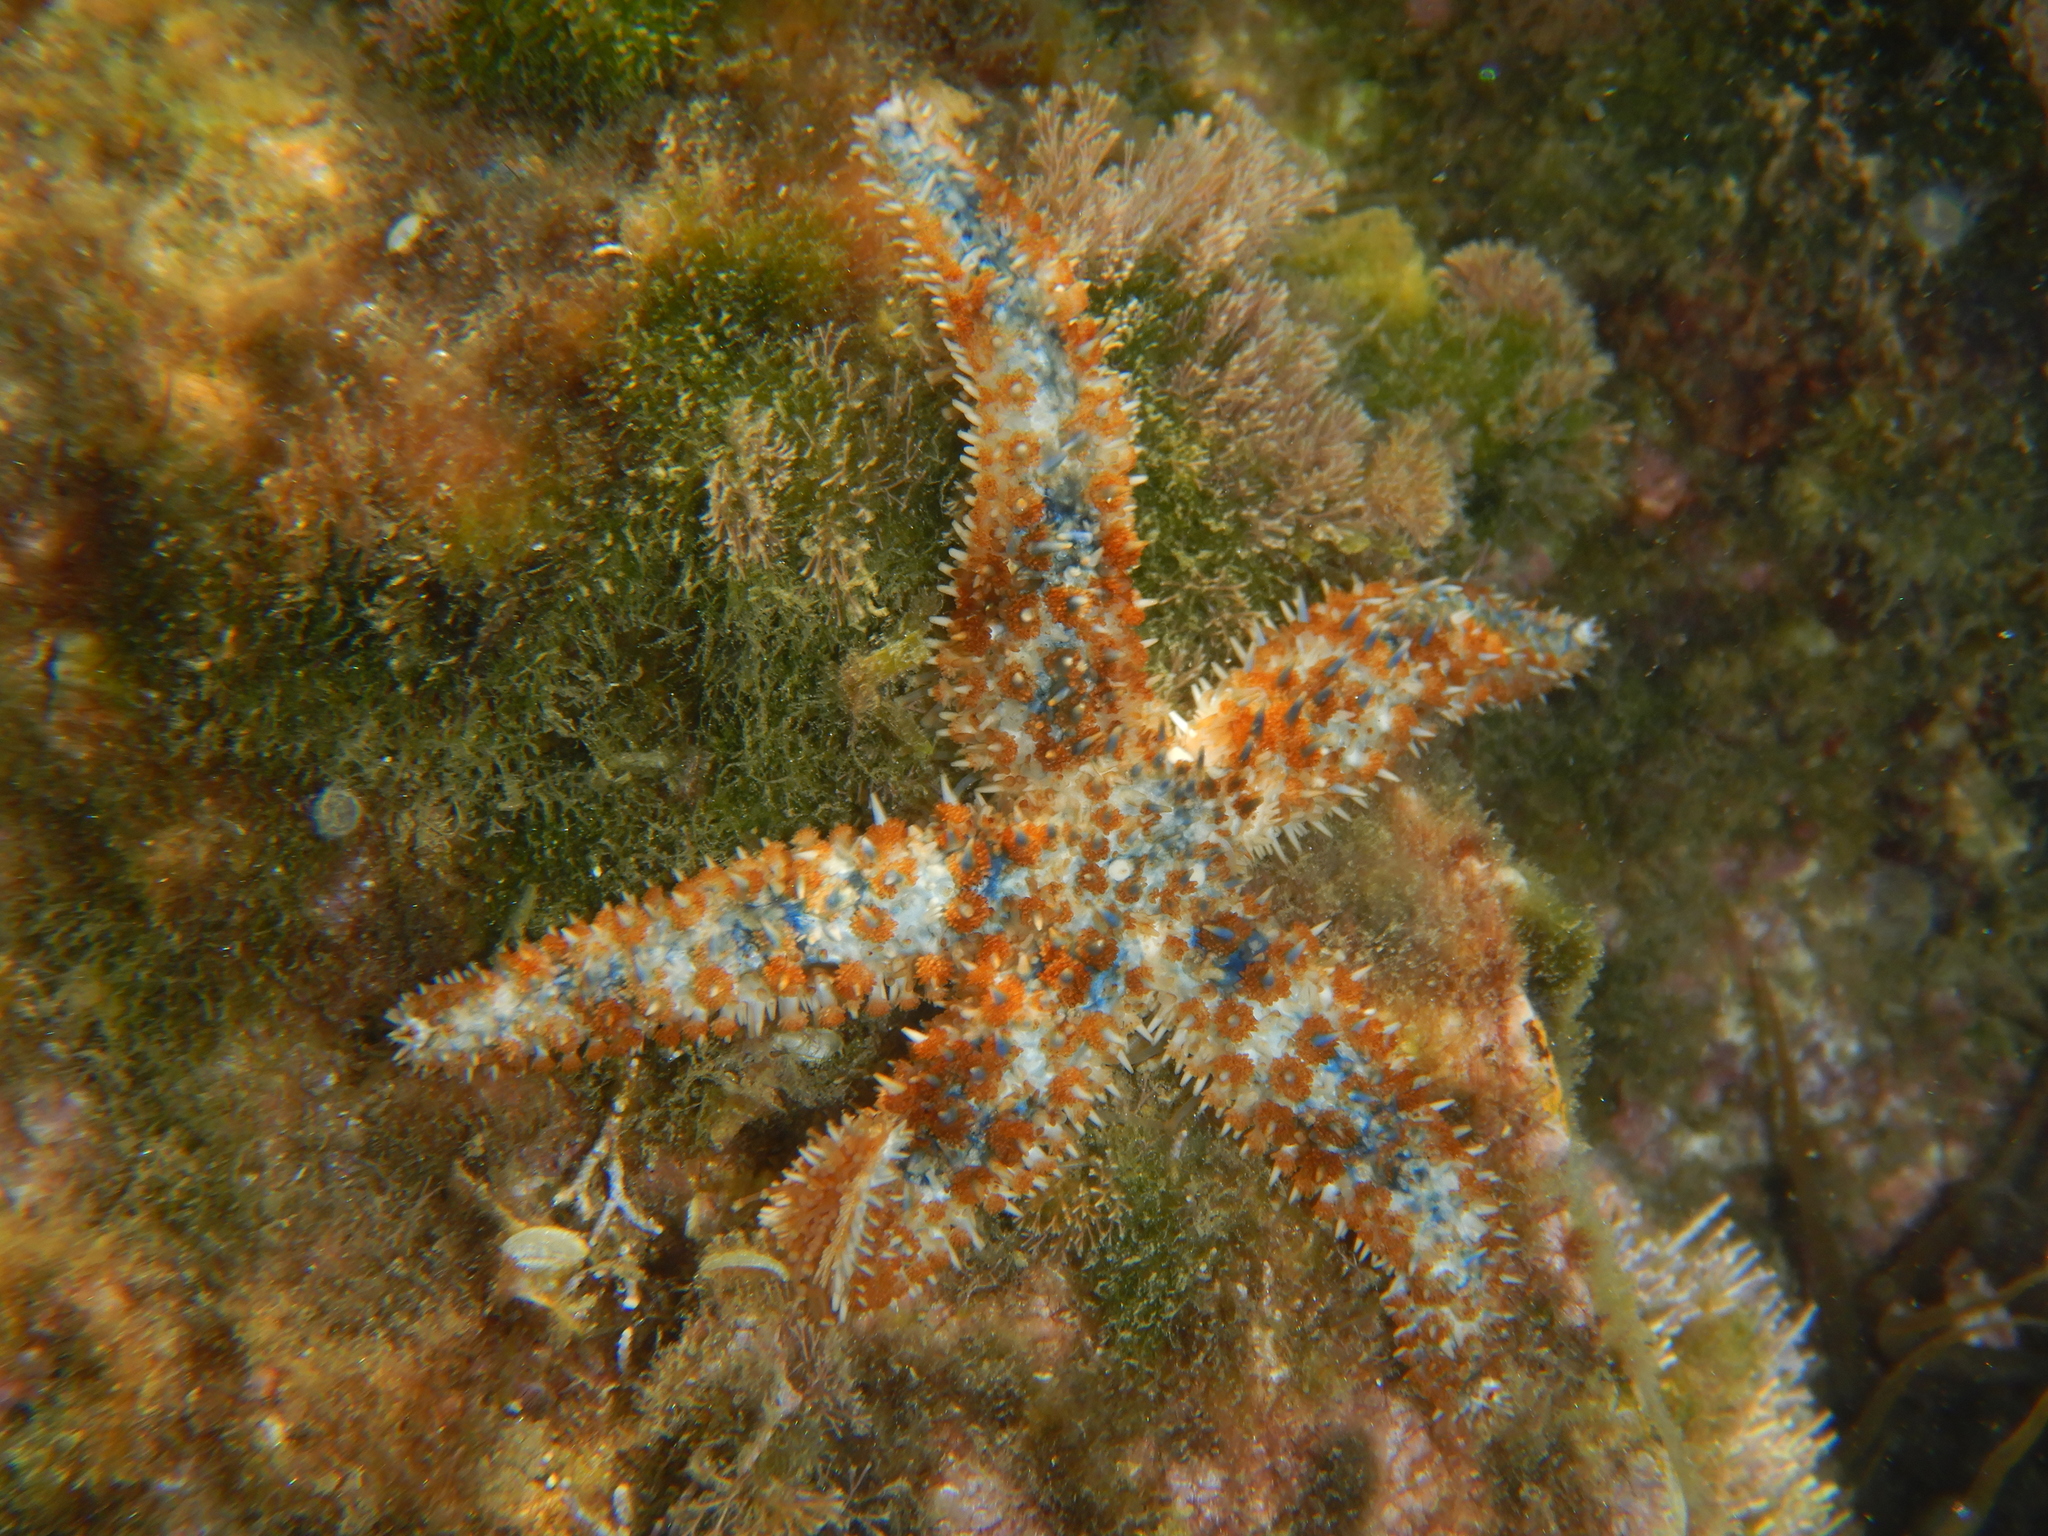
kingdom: Animalia
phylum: Echinodermata
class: Asteroidea
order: Forcipulatida
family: Asteriidae
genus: Coscinasterias
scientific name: Coscinasterias tenuispina
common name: Blue spiny starfish
